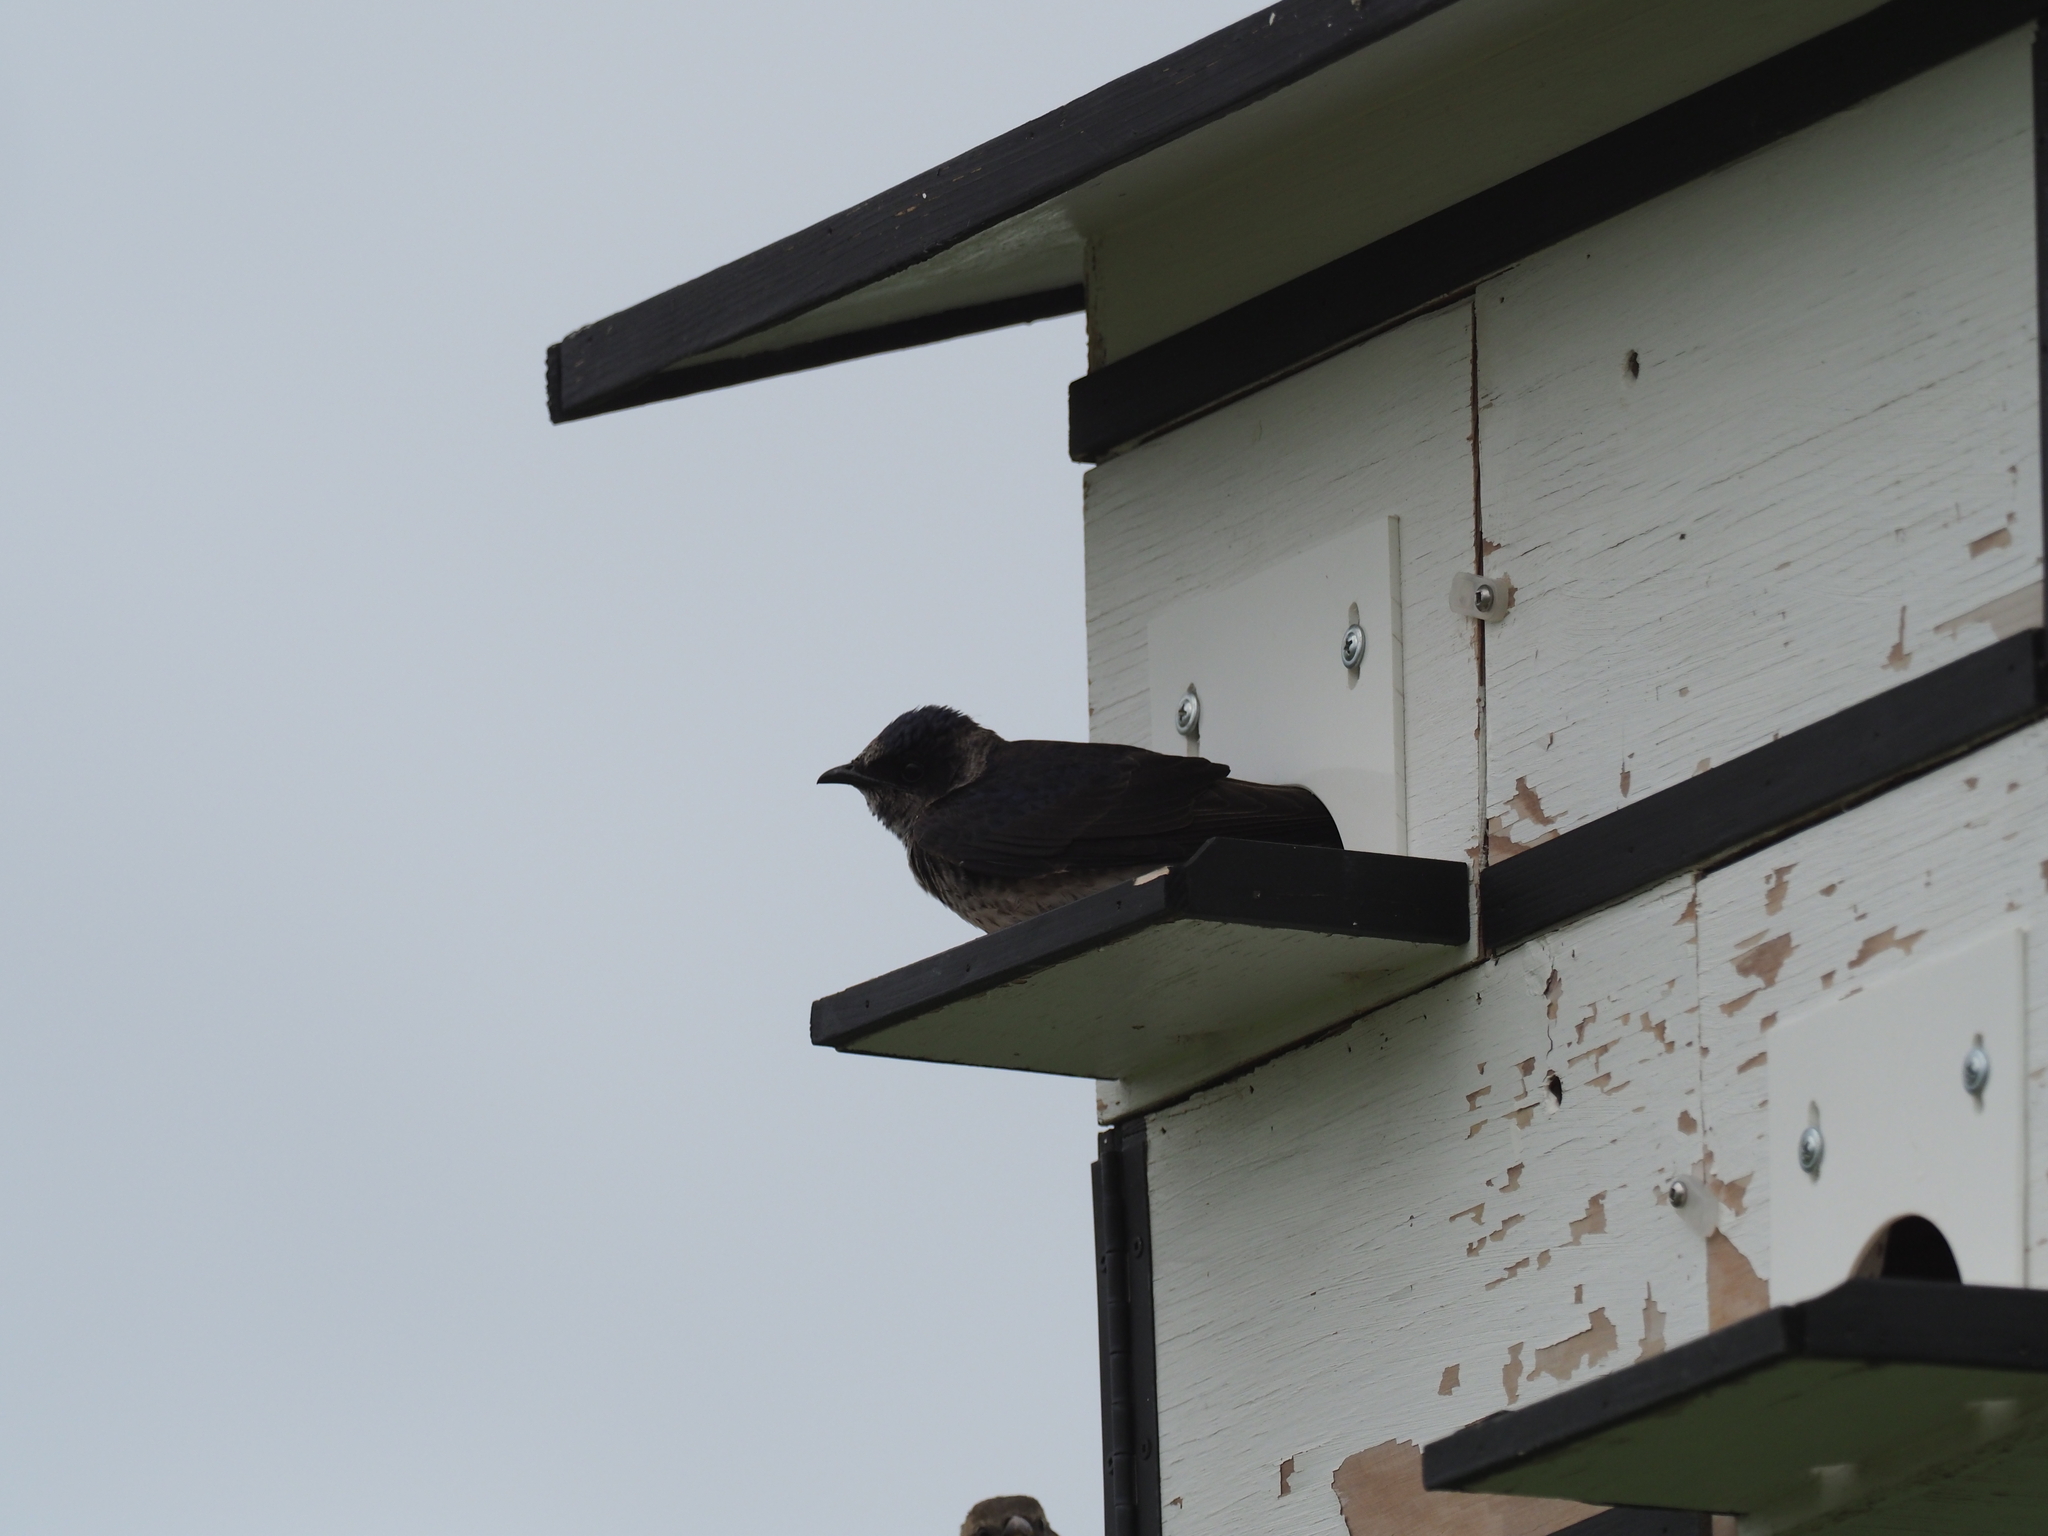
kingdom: Animalia
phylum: Chordata
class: Aves
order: Passeriformes
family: Hirundinidae
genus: Progne
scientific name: Progne subis
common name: Purple martin
